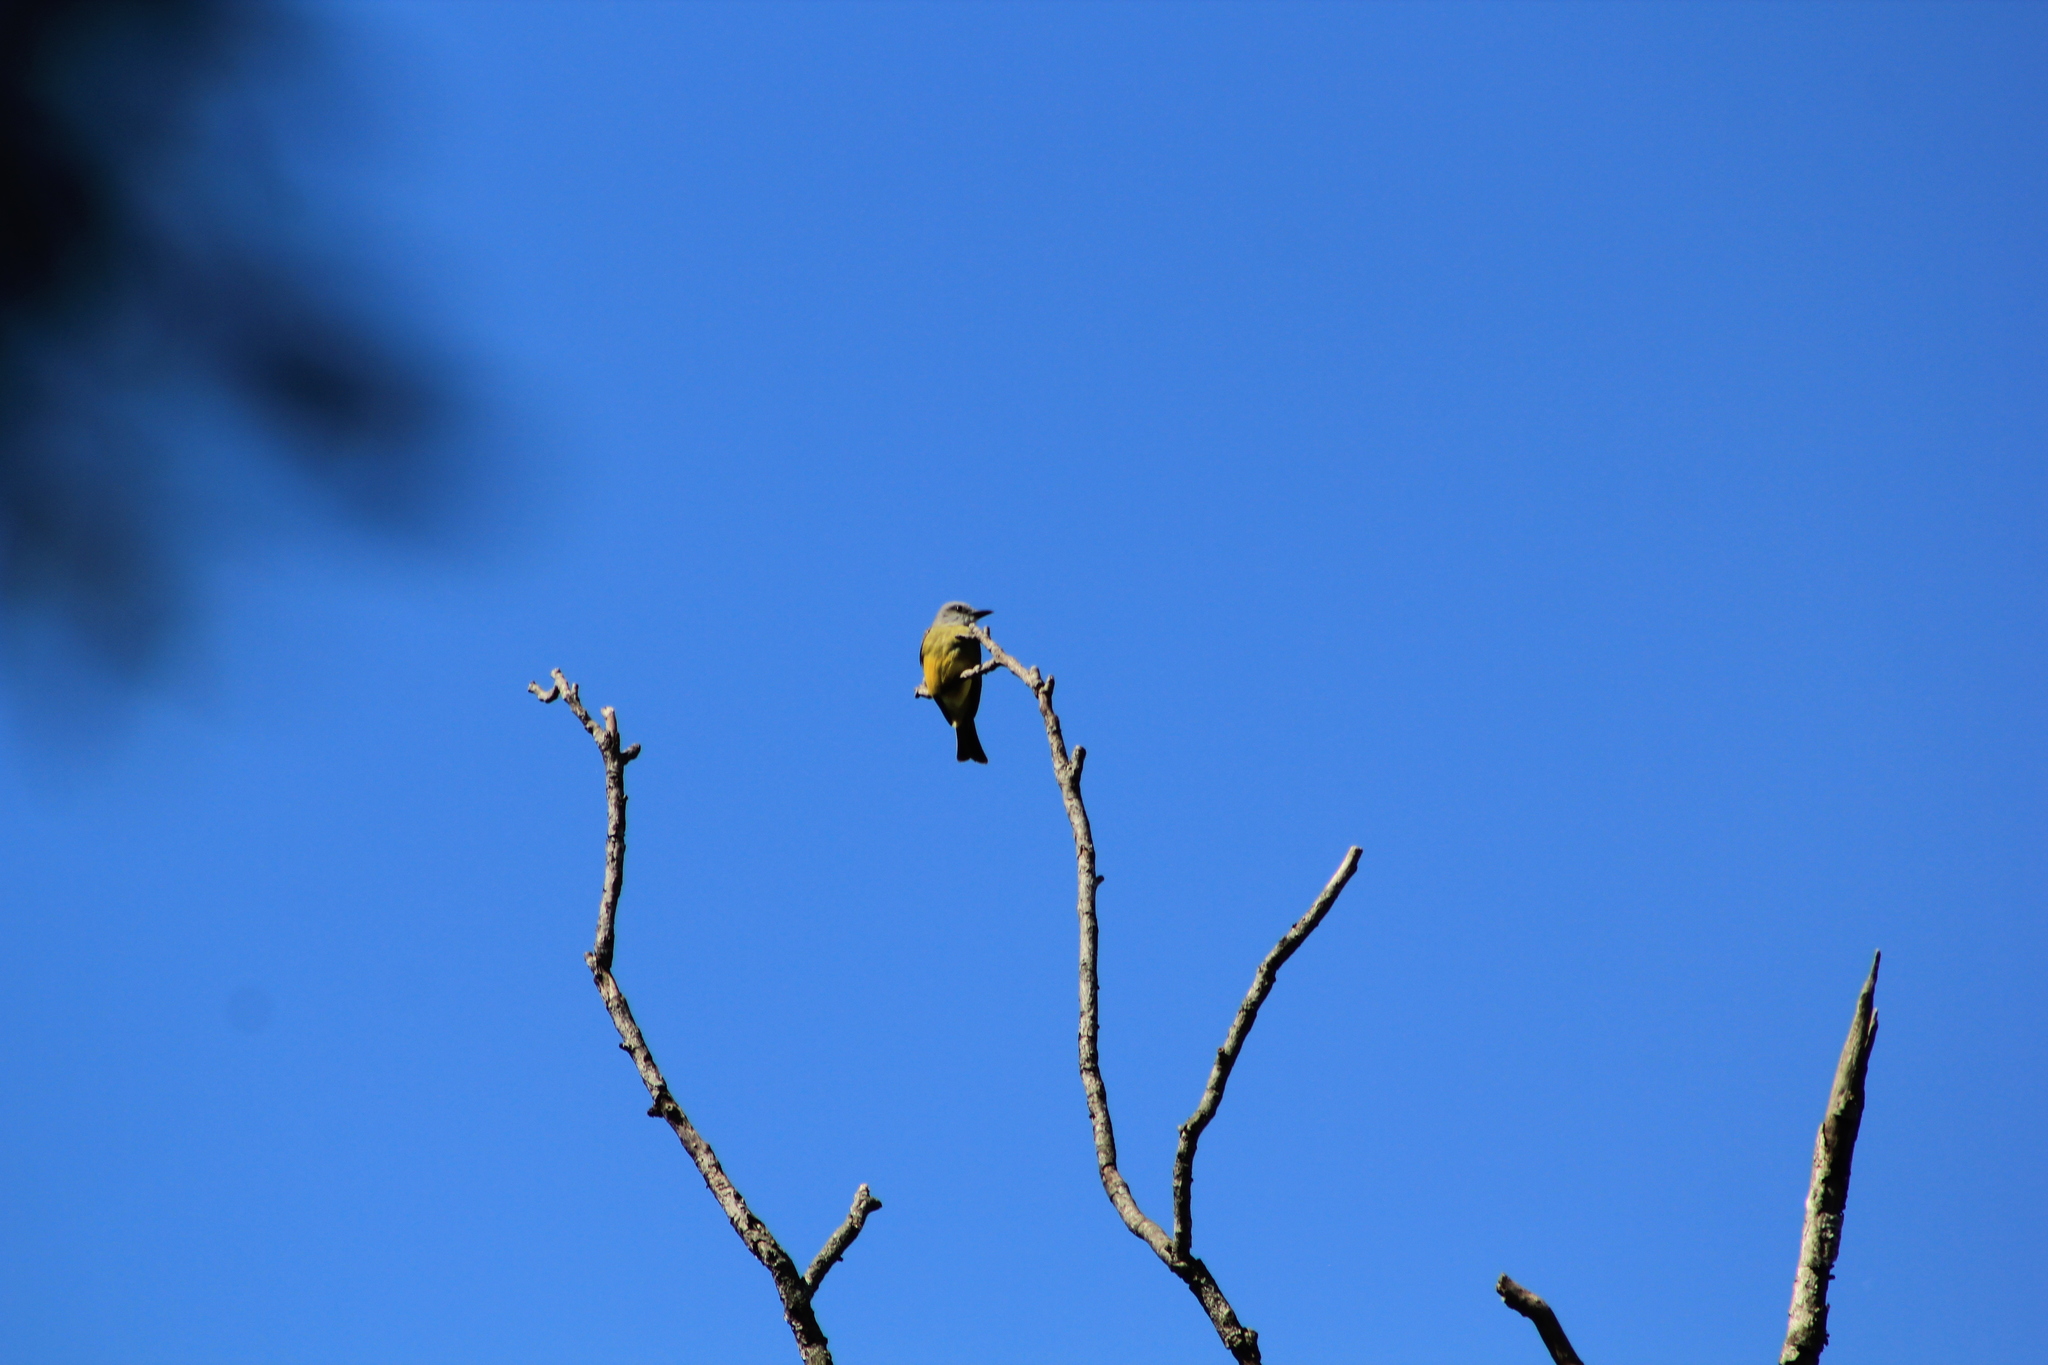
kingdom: Animalia
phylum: Chordata
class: Aves
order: Passeriformes
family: Tyrannidae
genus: Tyrannus
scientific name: Tyrannus melancholicus
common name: Tropical kingbird
